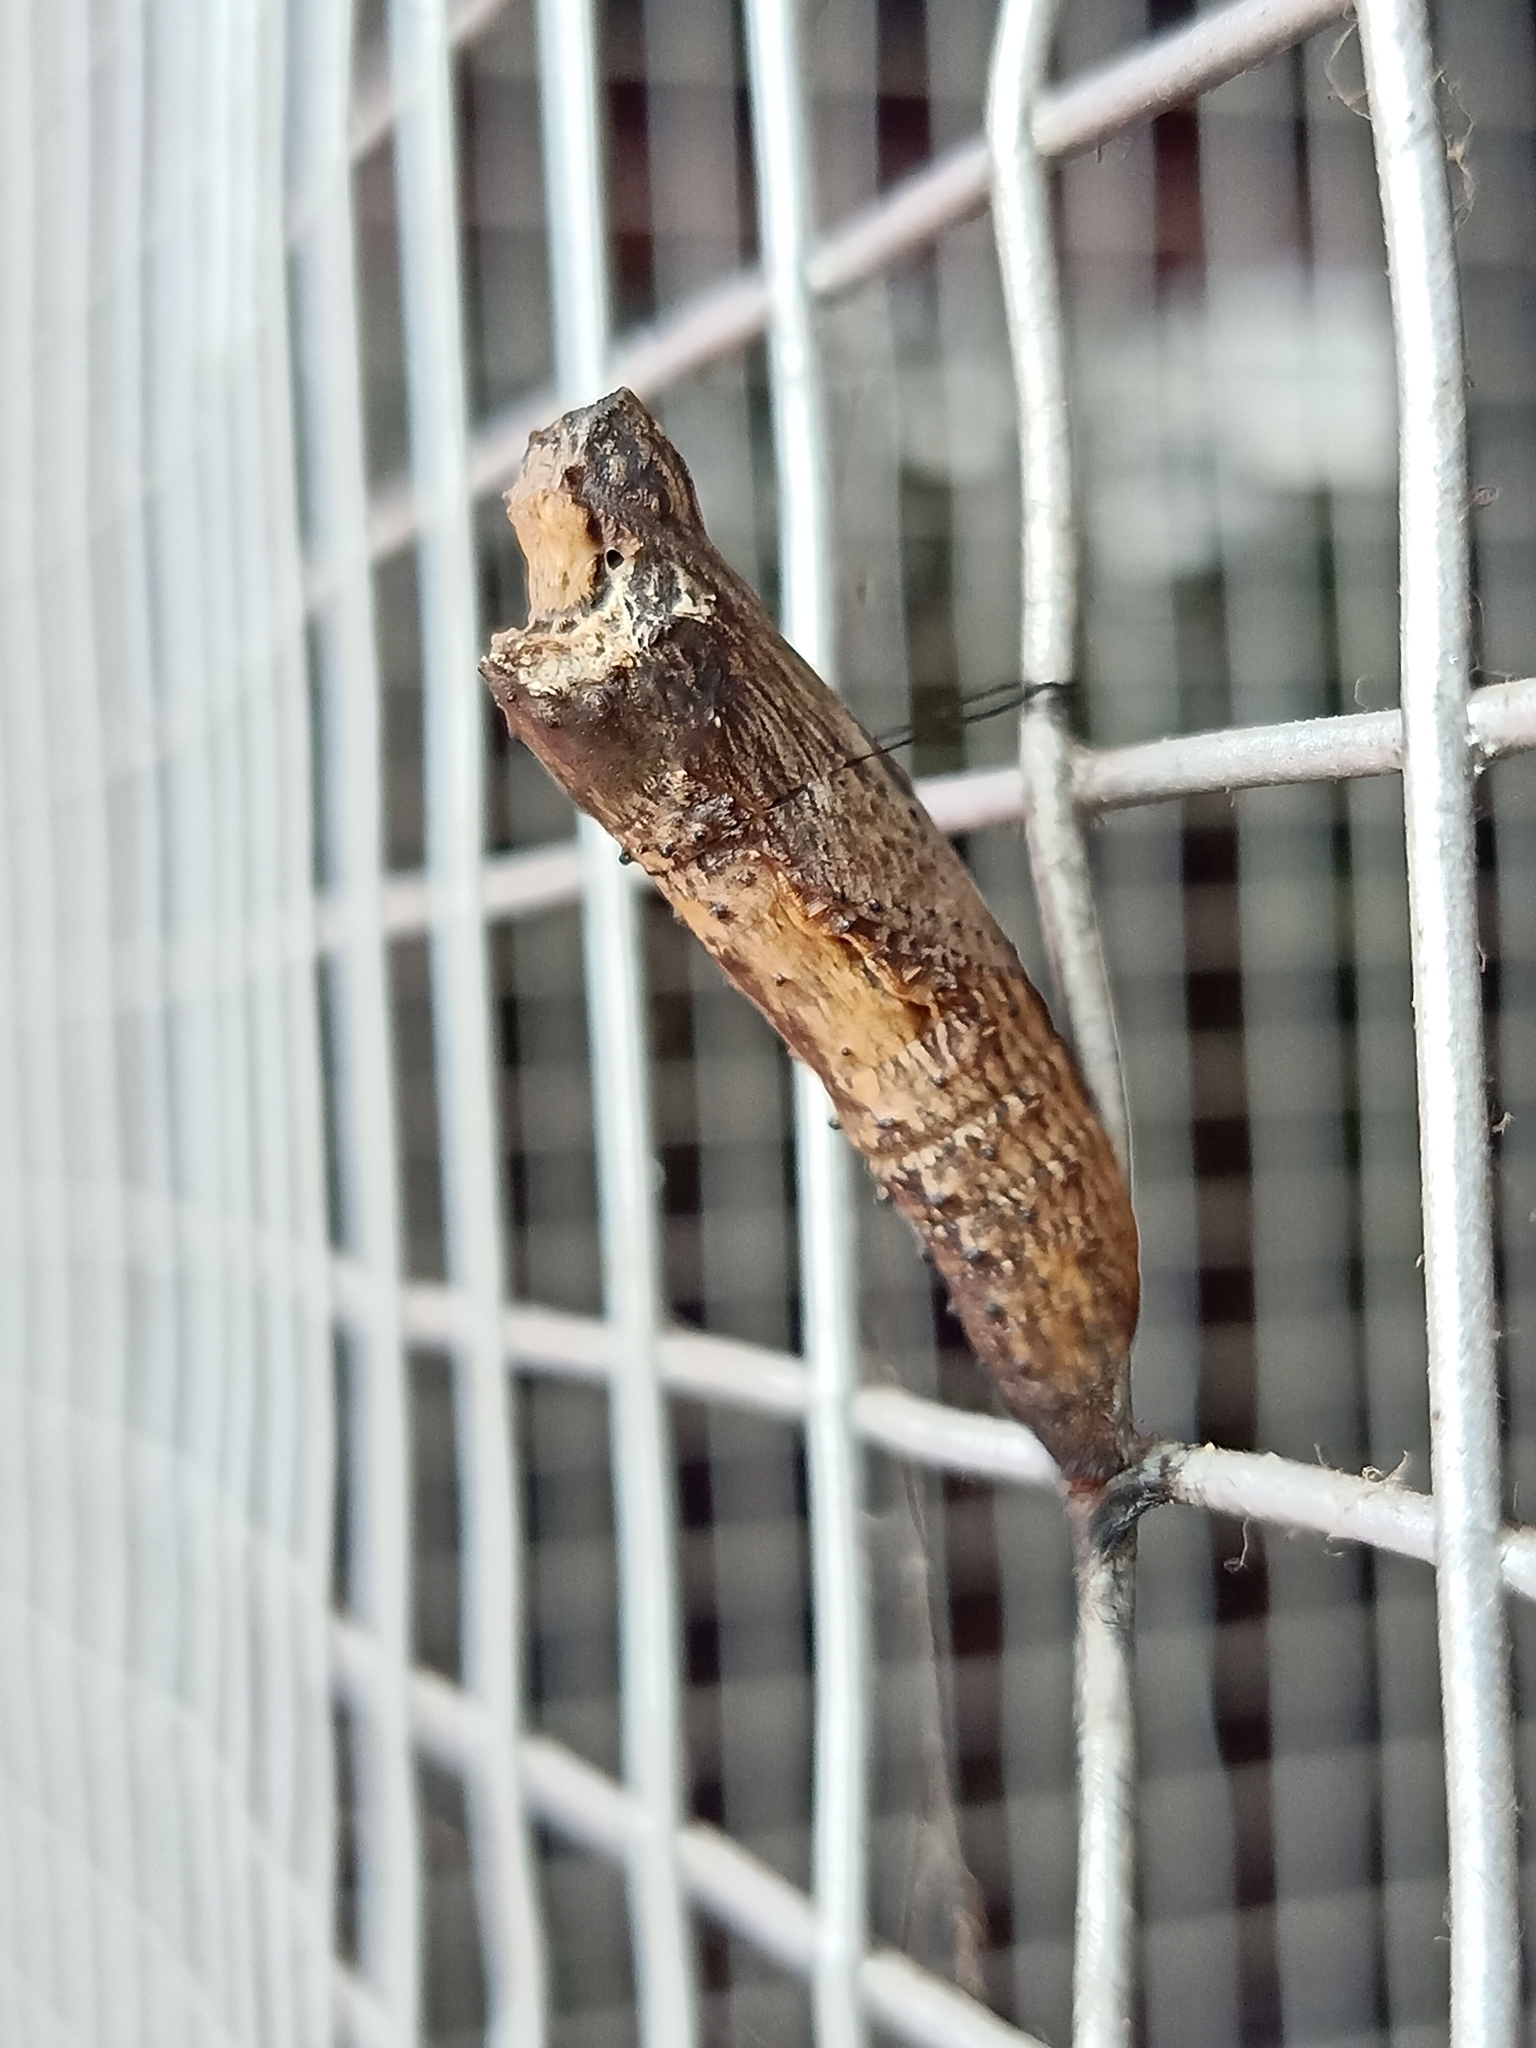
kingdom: Animalia
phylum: Arthropoda
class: Insecta
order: Lepidoptera
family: Papilionidae
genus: Chilasa
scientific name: Chilasa clytia
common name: Common mime
